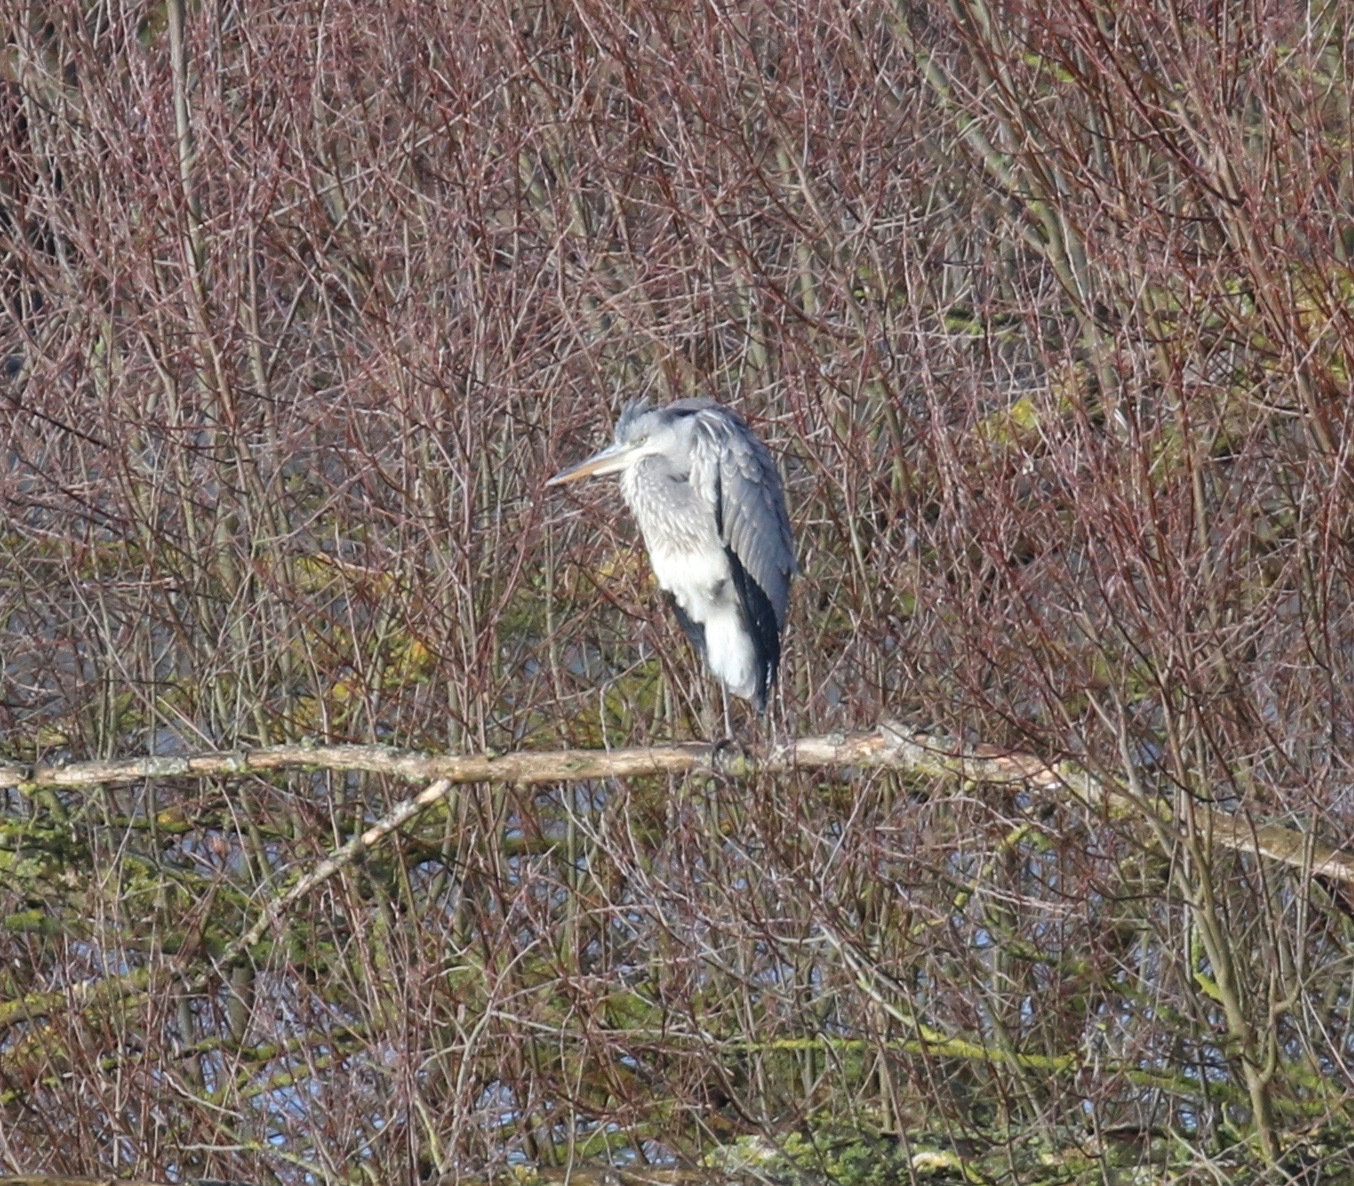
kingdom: Animalia
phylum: Chordata
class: Aves
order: Pelecaniformes
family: Ardeidae
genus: Ardea
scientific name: Ardea cinerea
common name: Grey heron
